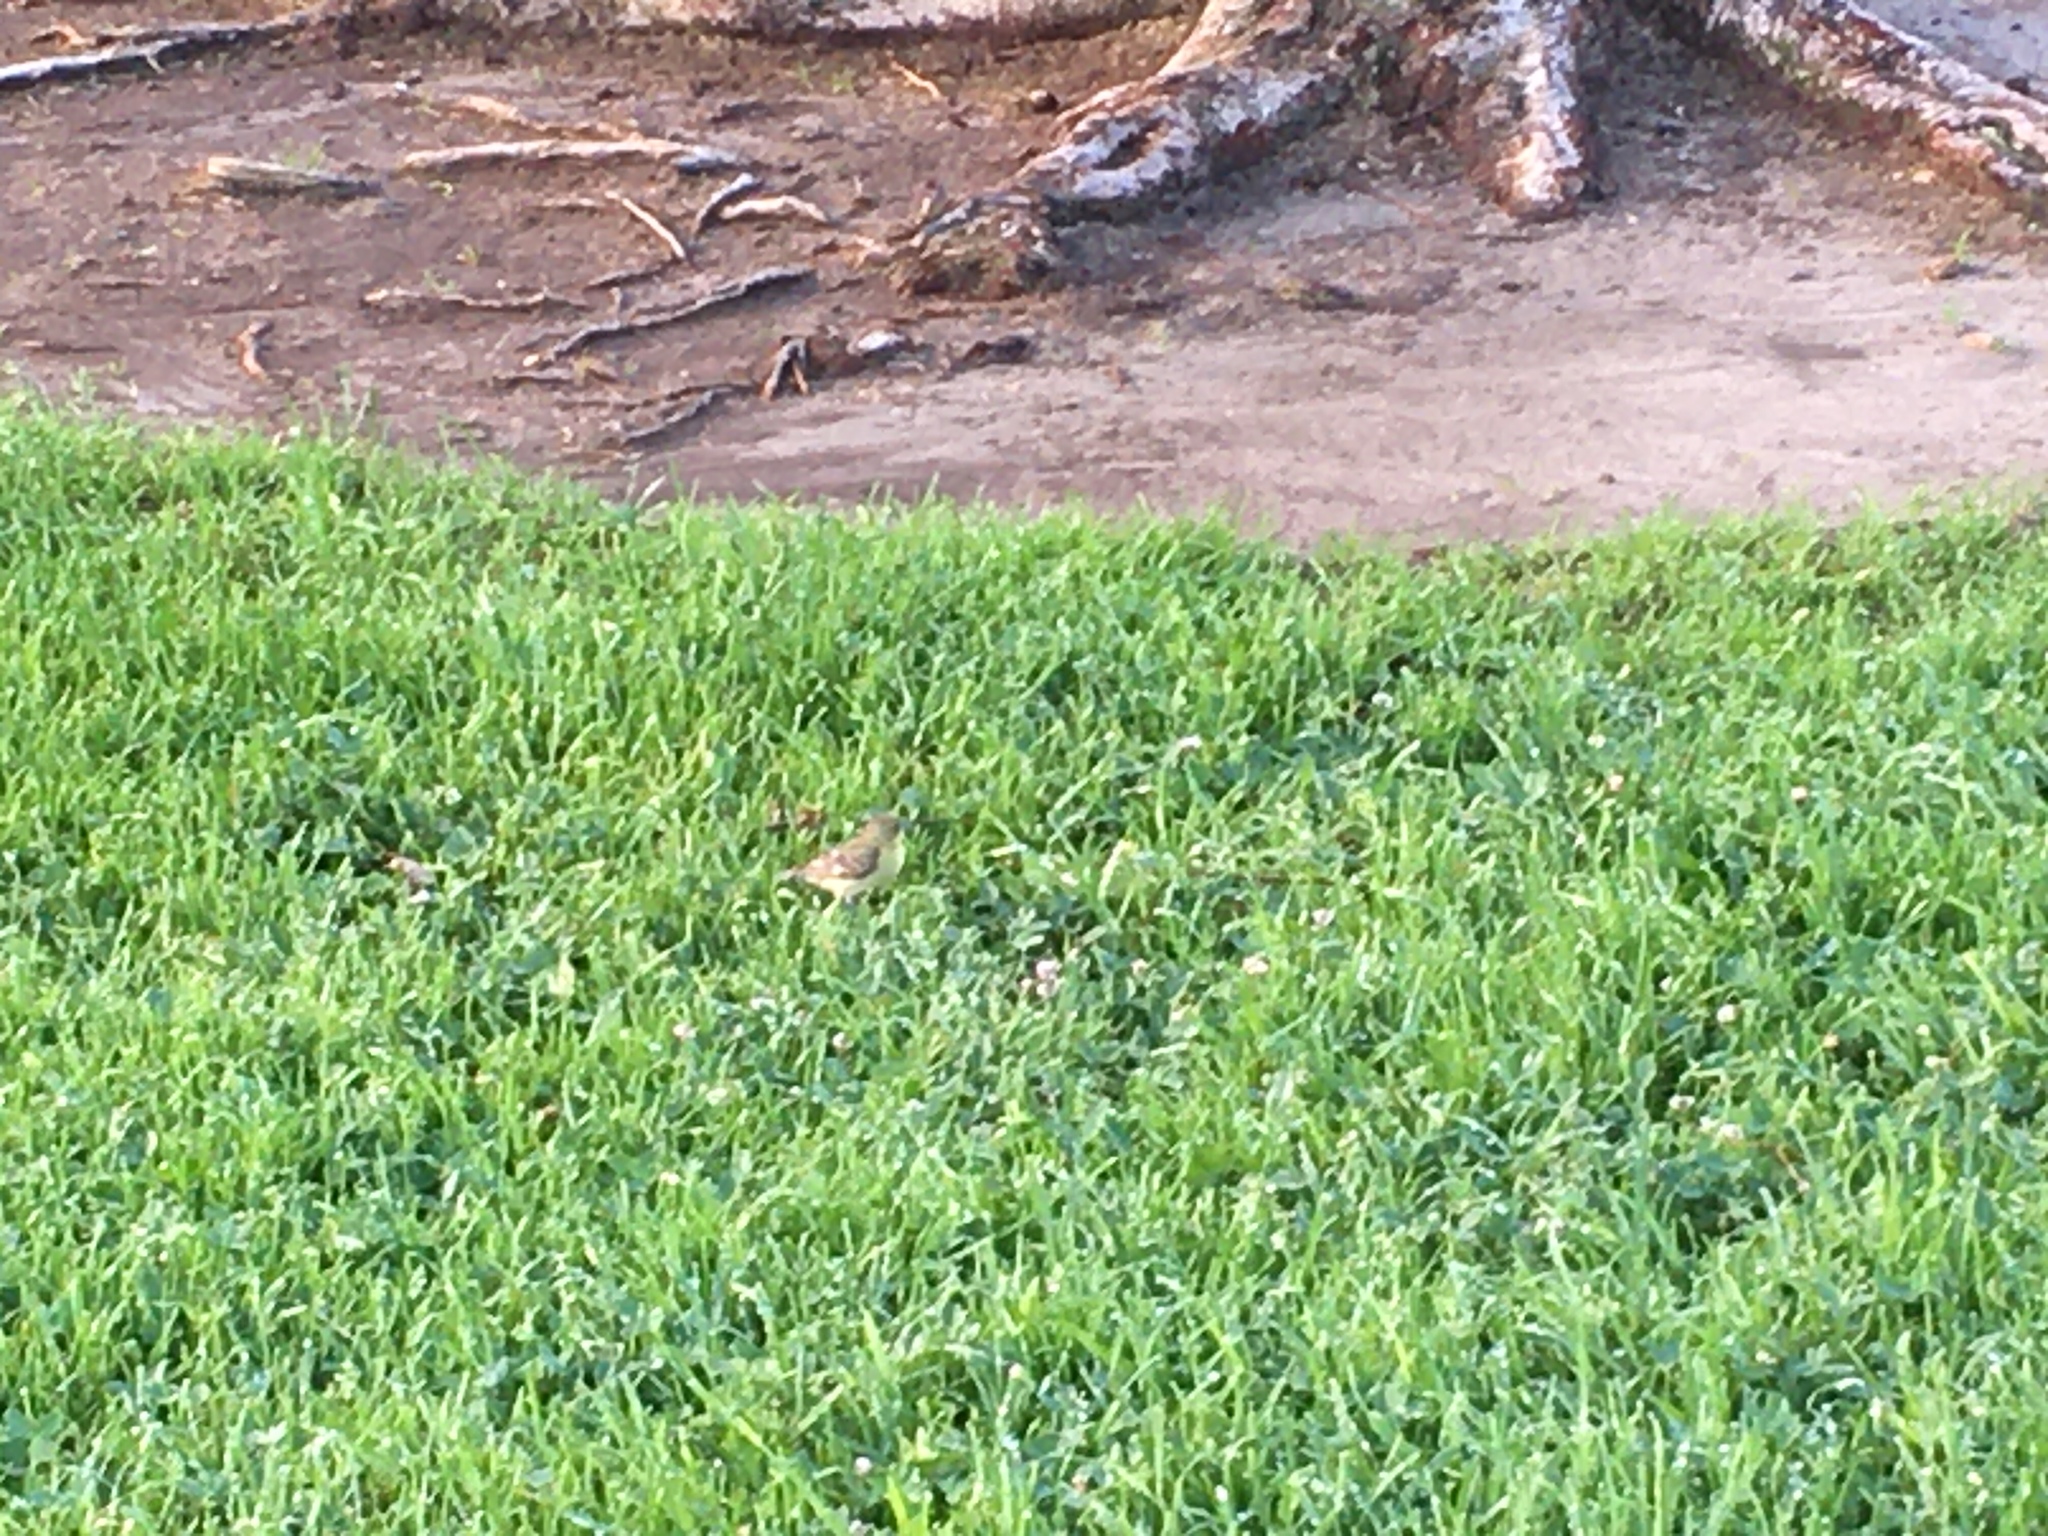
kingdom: Animalia
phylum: Chordata
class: Aves
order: Passeriformes
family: Fringillidae
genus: Spinus
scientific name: Spinus psaltria
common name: Lesser goldfinch
